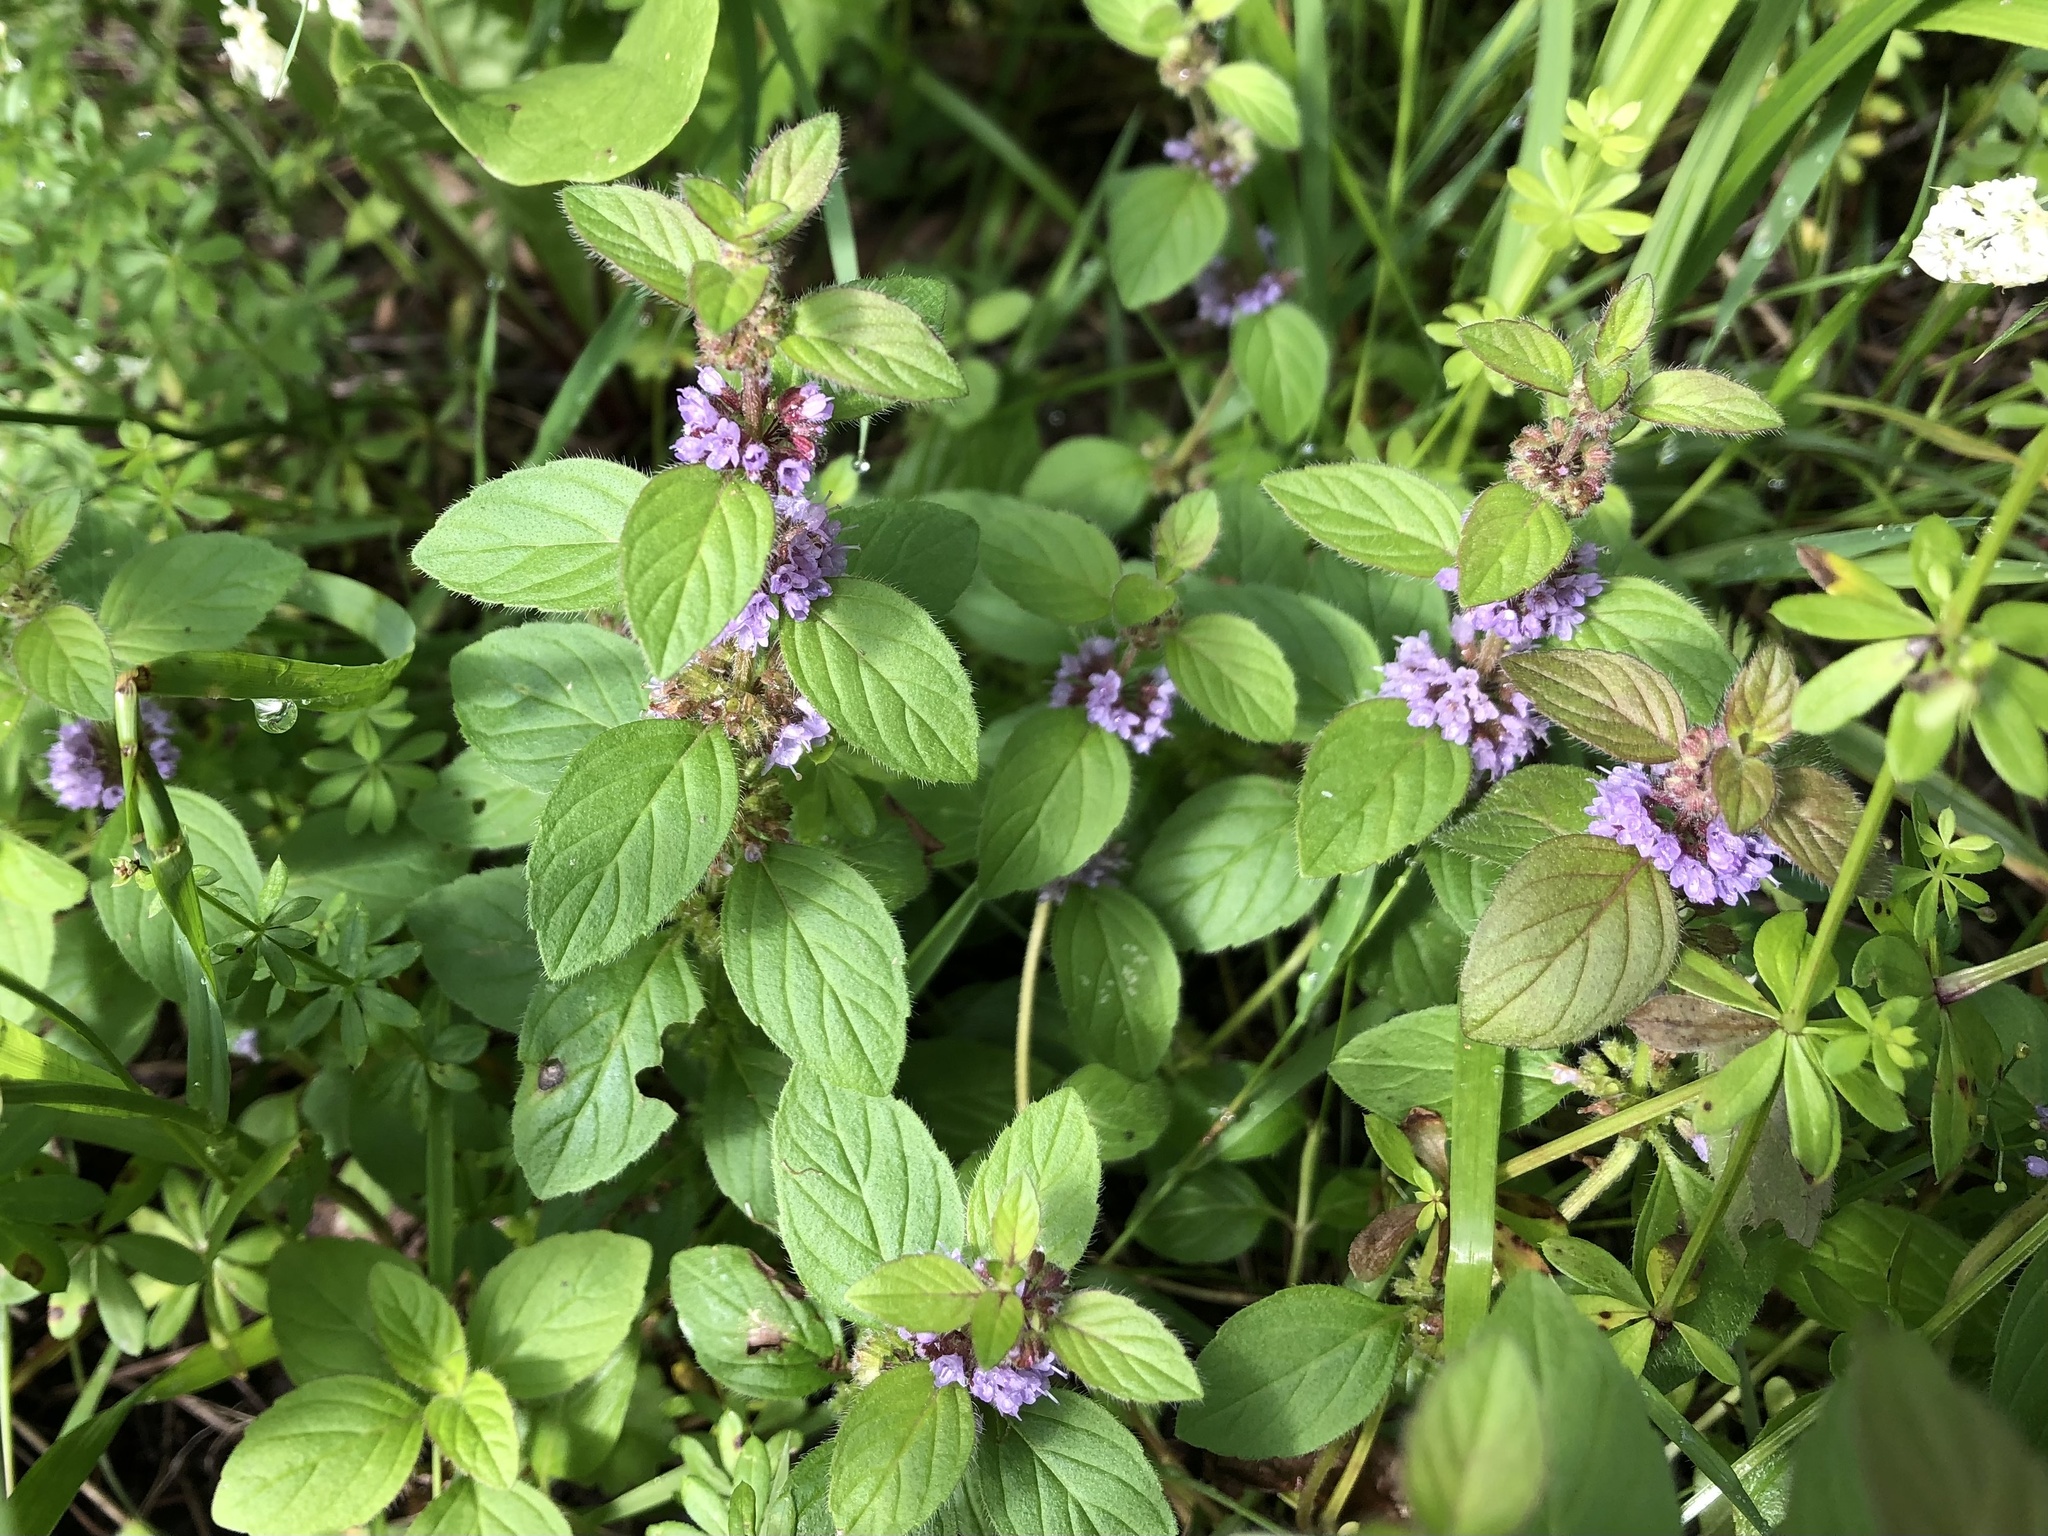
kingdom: Plantae
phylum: Tracheophyta
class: Magnoliopsida
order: Lamiales
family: Lamiaceae
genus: Mentha
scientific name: Mentha arvensis
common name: Corn mint
